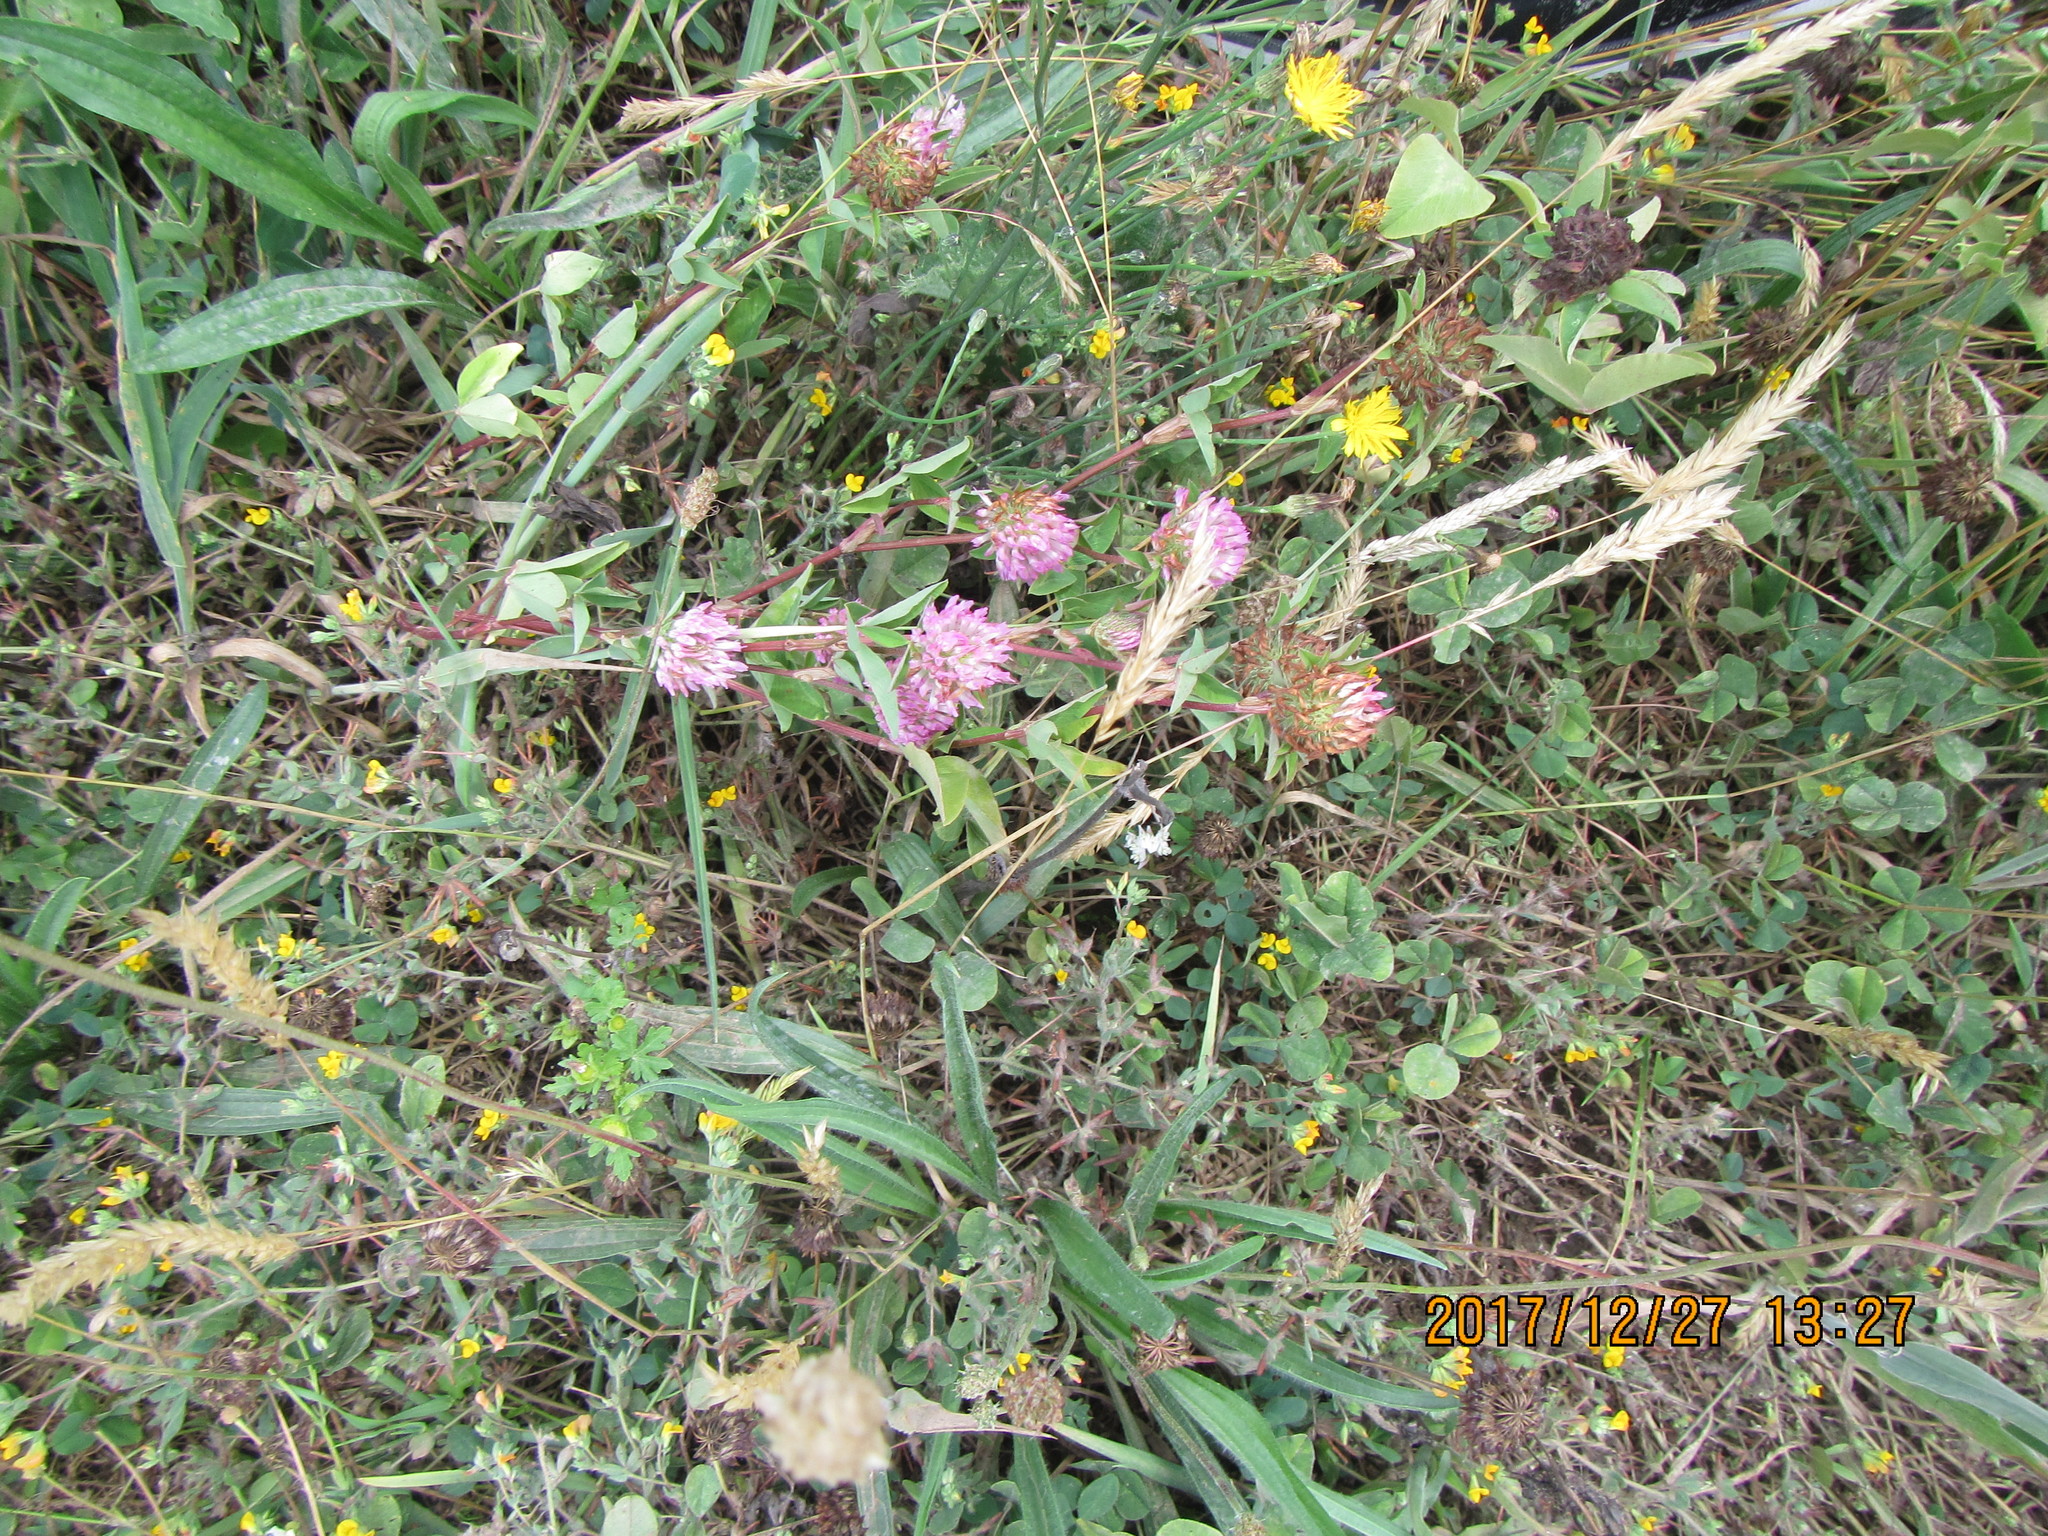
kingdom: Plantae
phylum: Tracheophyta
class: Magnoliopsida
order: Fabales
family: Fabaceae
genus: Trifolium
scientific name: Trifolium pratense
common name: Red clover
